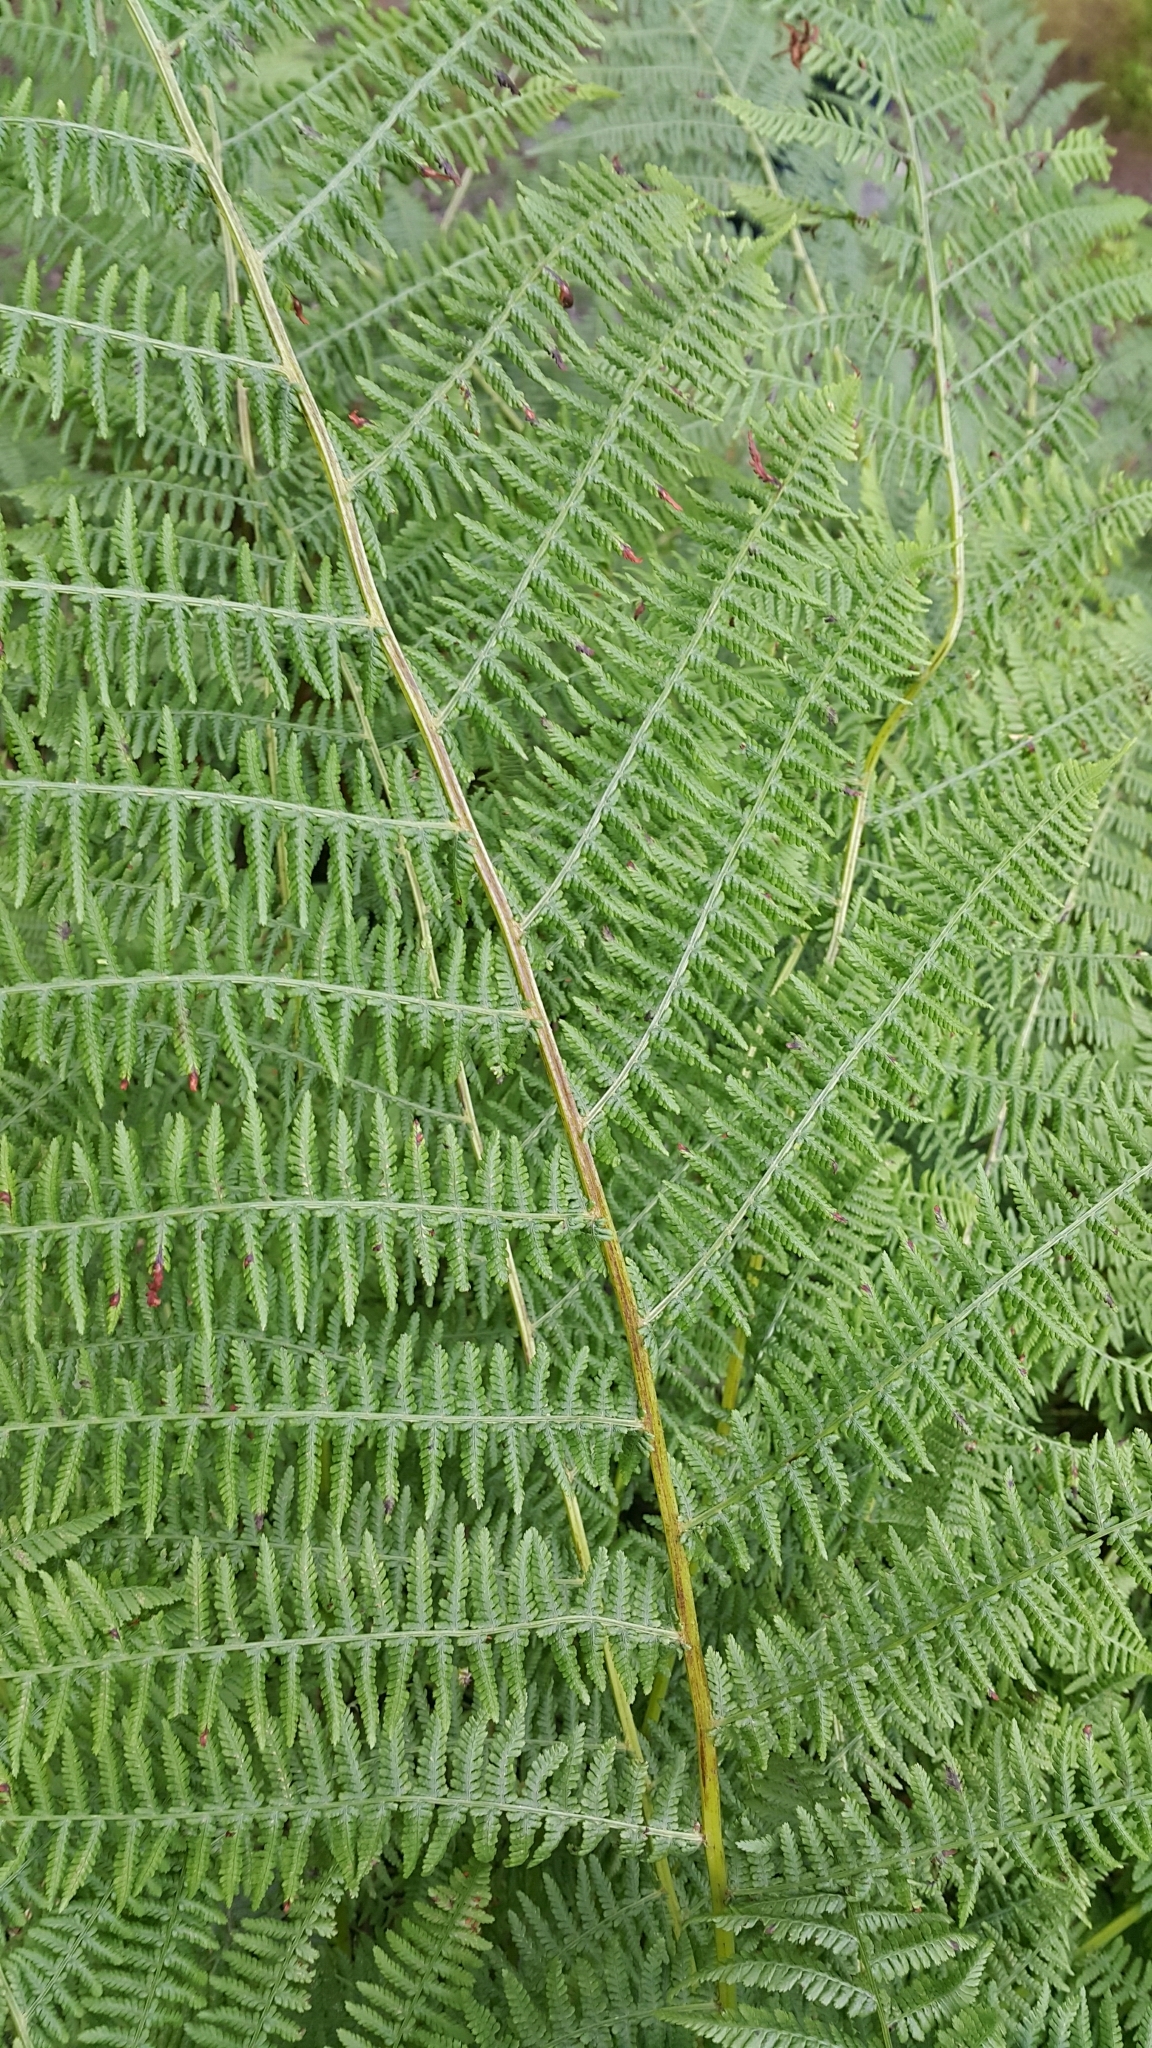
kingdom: Plantae
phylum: Tracheophyta
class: Polypodiopsida
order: Polypodiales
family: Athyriaceae
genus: Athyrium
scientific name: Athyrium filix-femina
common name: Lady fern
